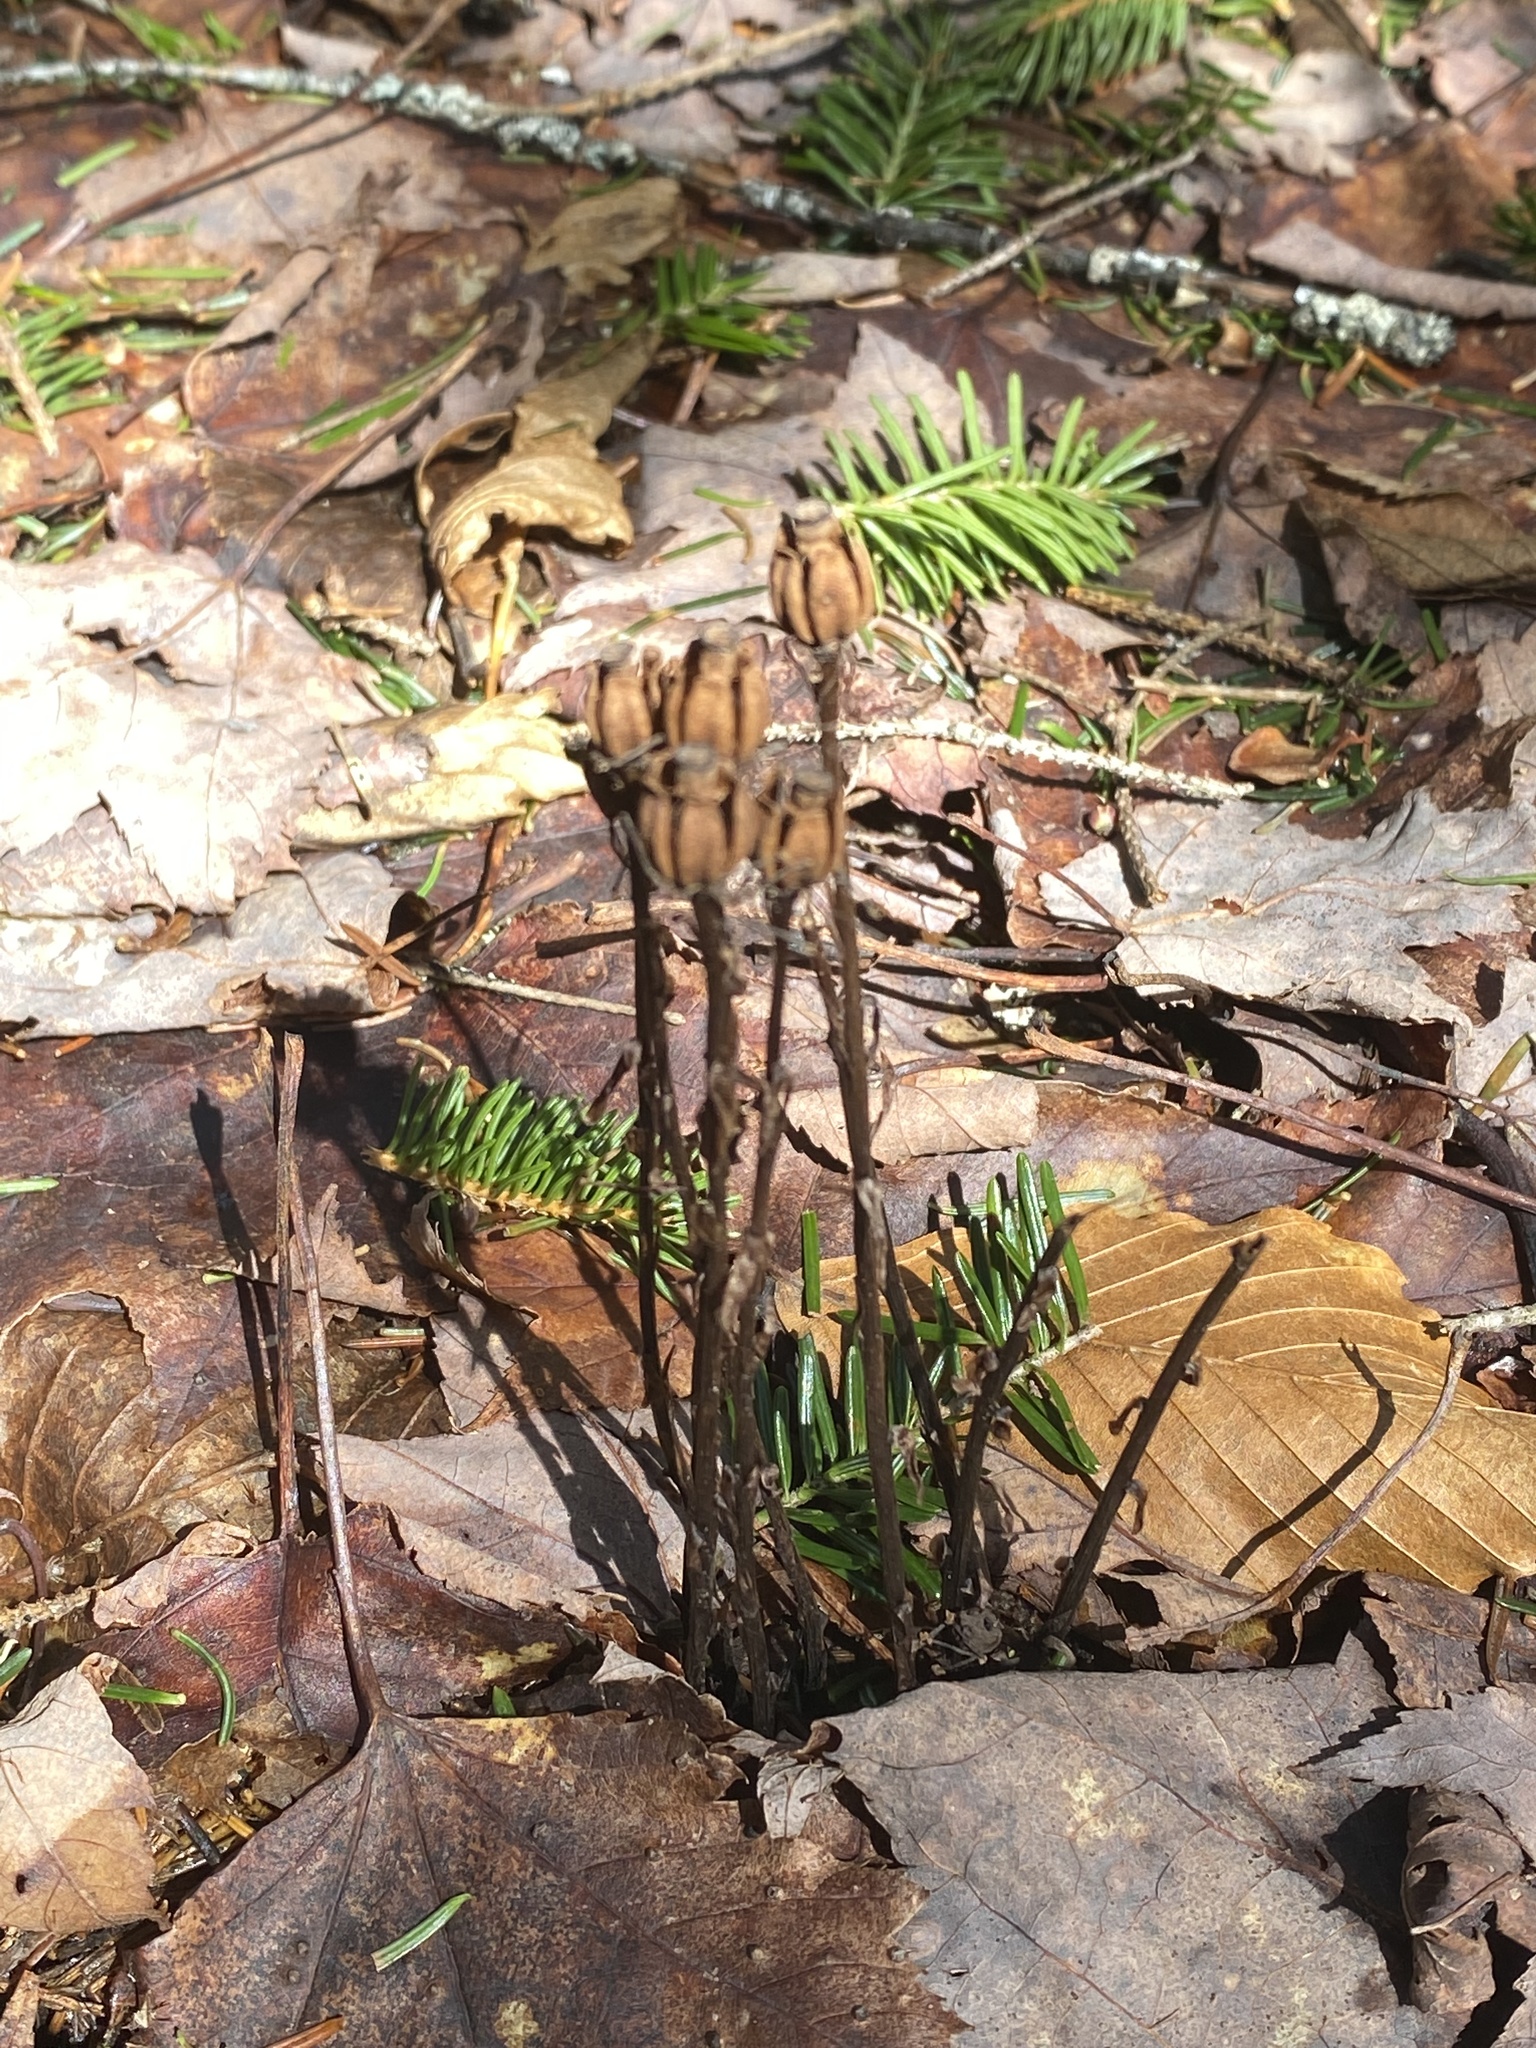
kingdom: Plantae
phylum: Tracheophyta
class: Magnoliopsida
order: Ericales
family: Ericaceae
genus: Monotropa
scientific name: Monotropa uniflora
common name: Convulsion root
